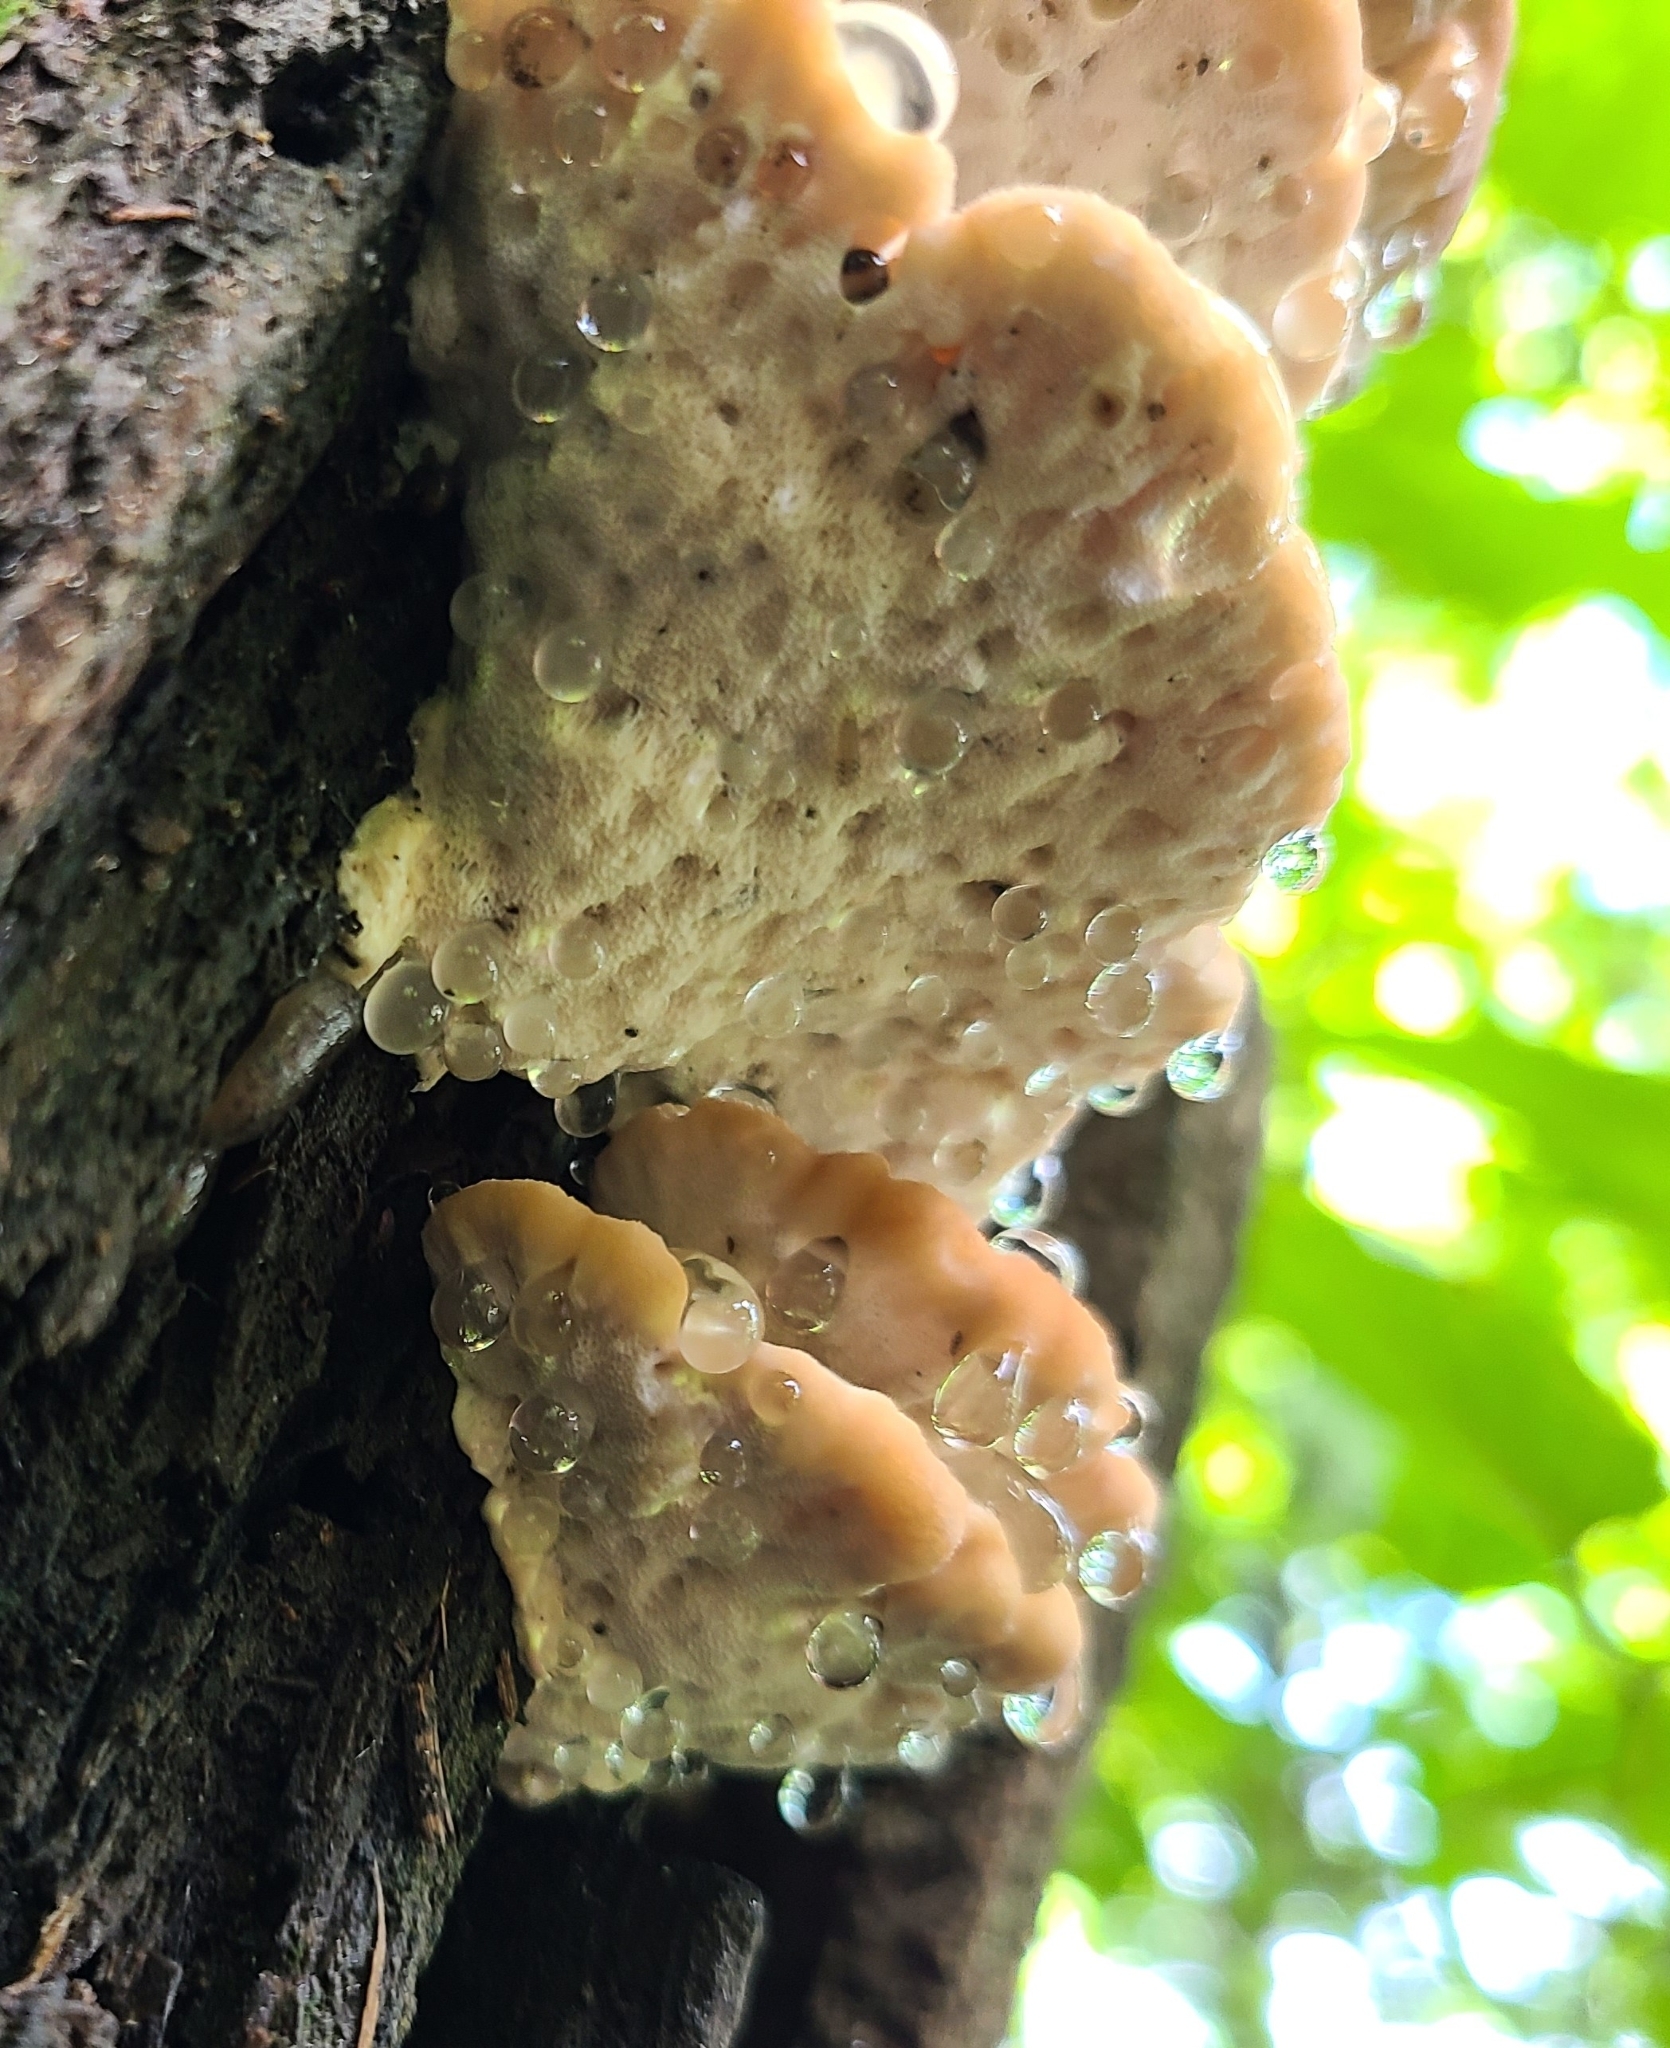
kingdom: Fungi
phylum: Basidiomycota
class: Agaricomycetes
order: Polyporales
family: Fomitopsidaceae
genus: Niveoporofomes
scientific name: Niveoporofomes spraguei
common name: Green cheese polypore
